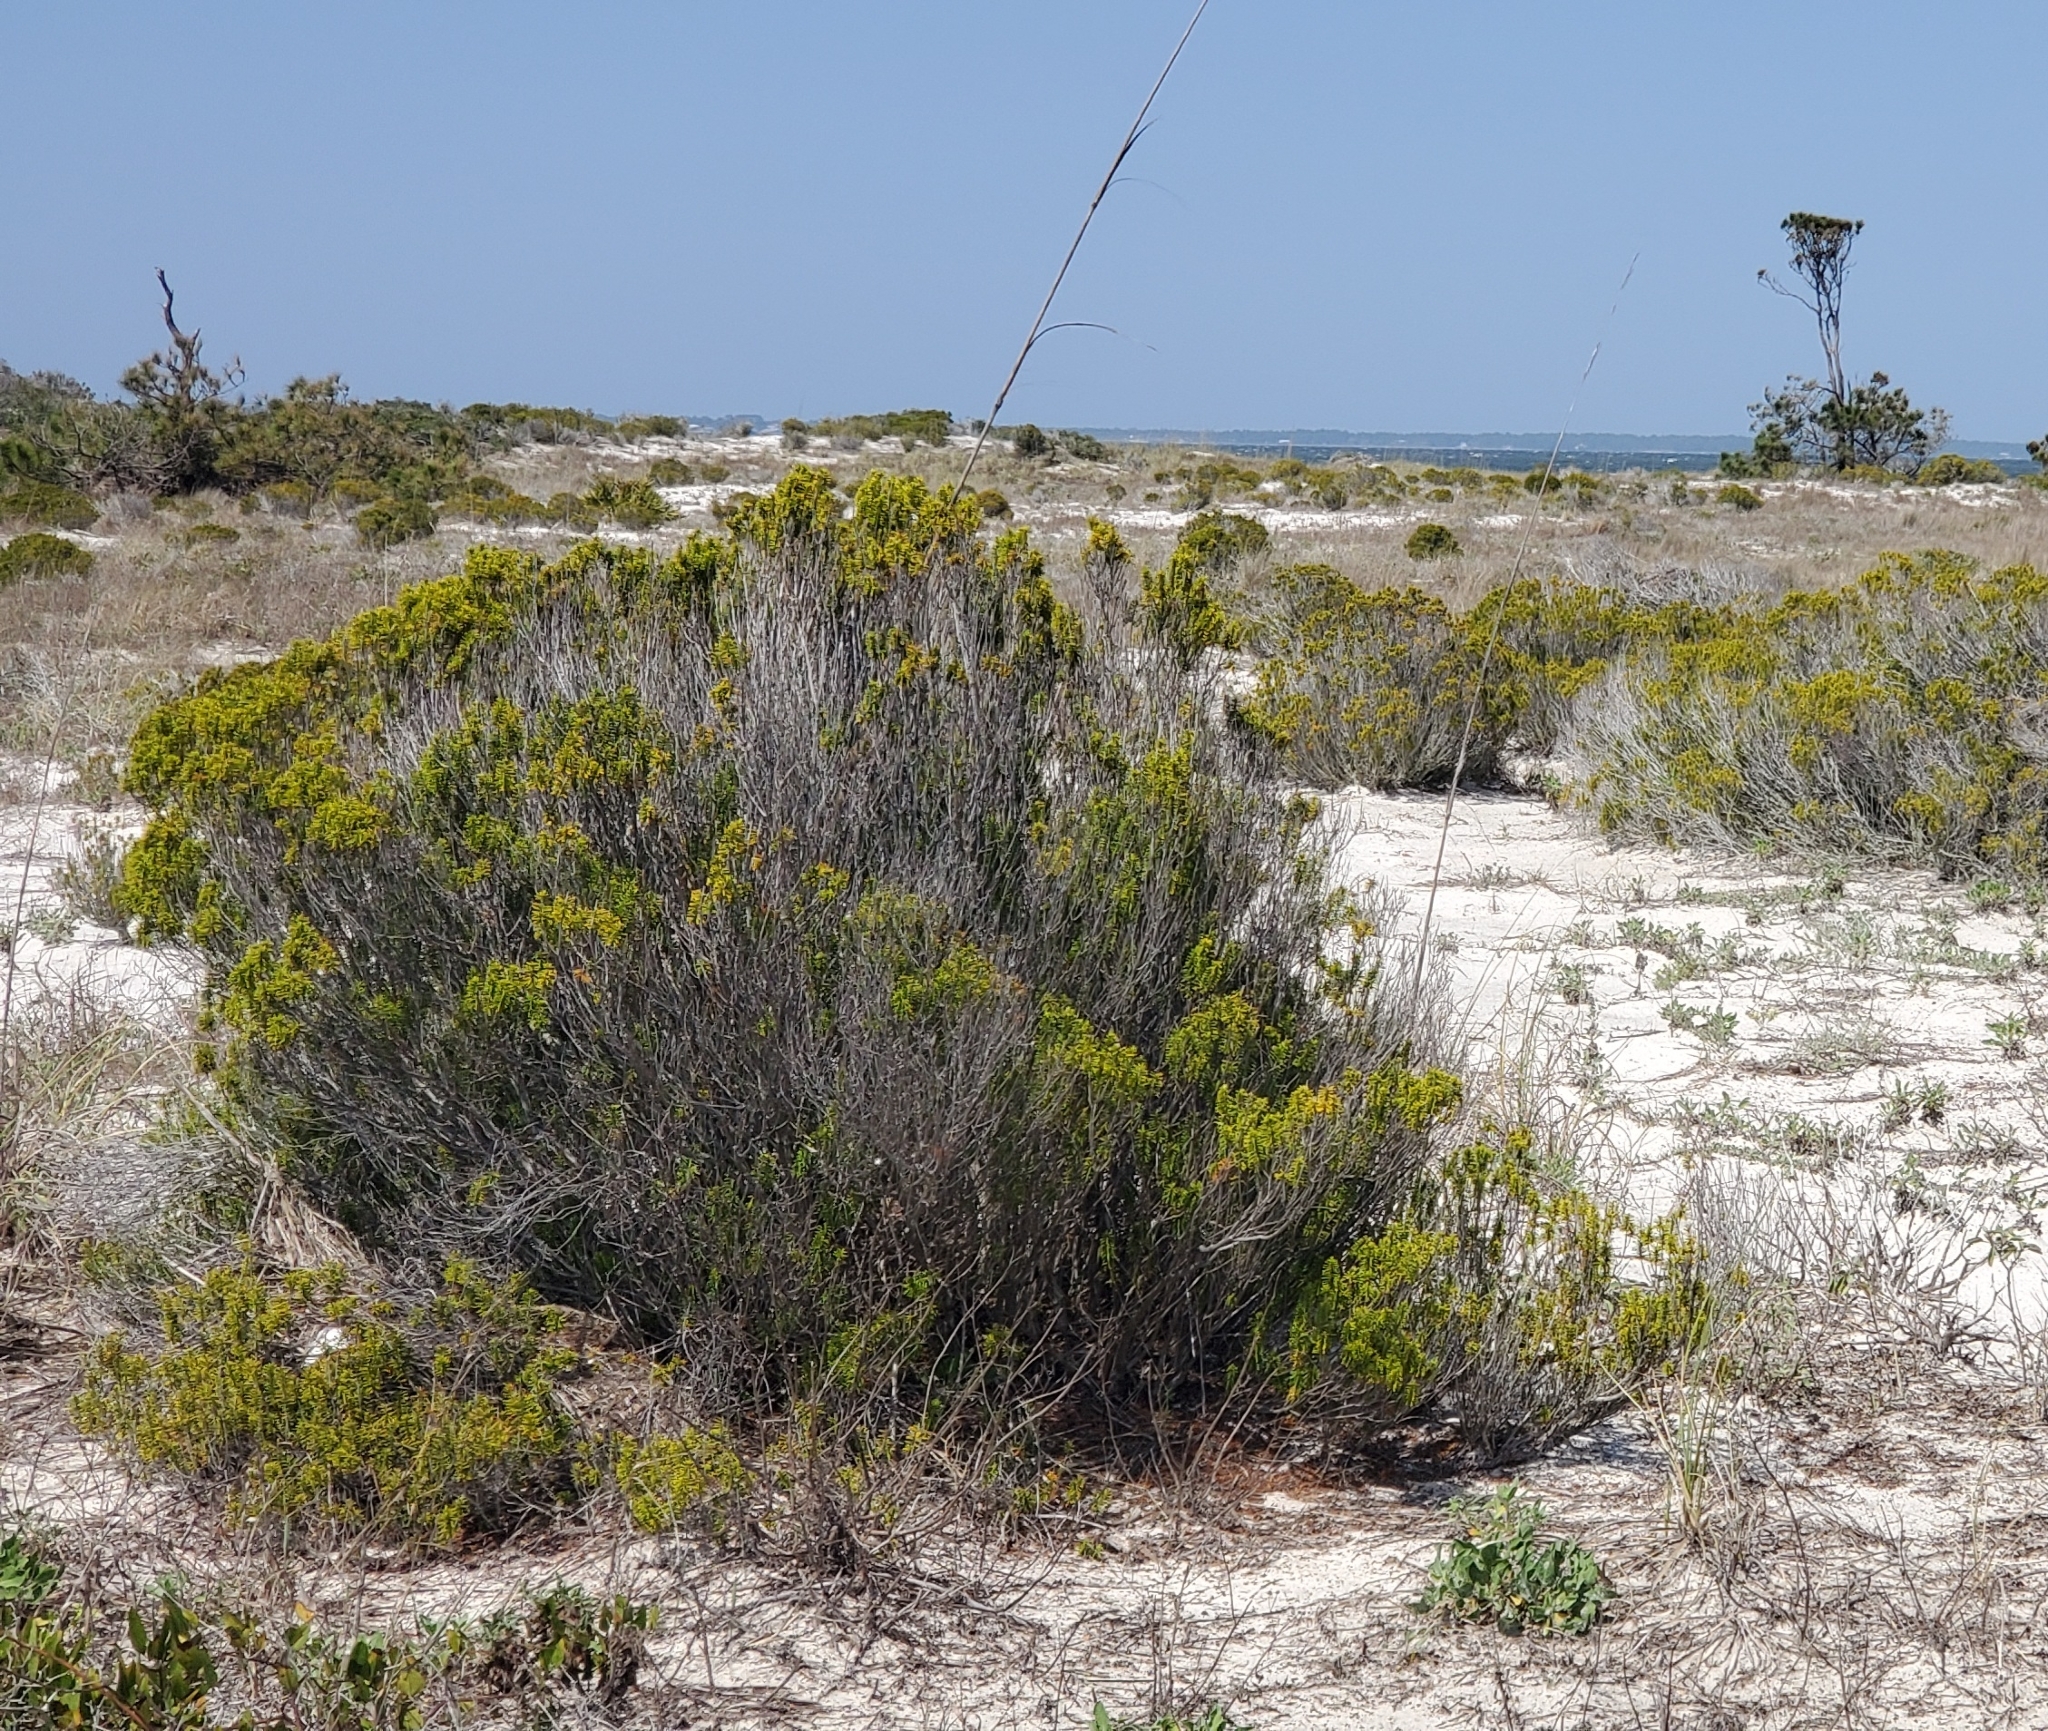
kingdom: Plantae
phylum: Tracheophyta
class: Magnoliopsida
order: Ericales
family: Ericaceae
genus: Ceratiola
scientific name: Ceratiola ericoides
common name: Sandhill-rosemary
